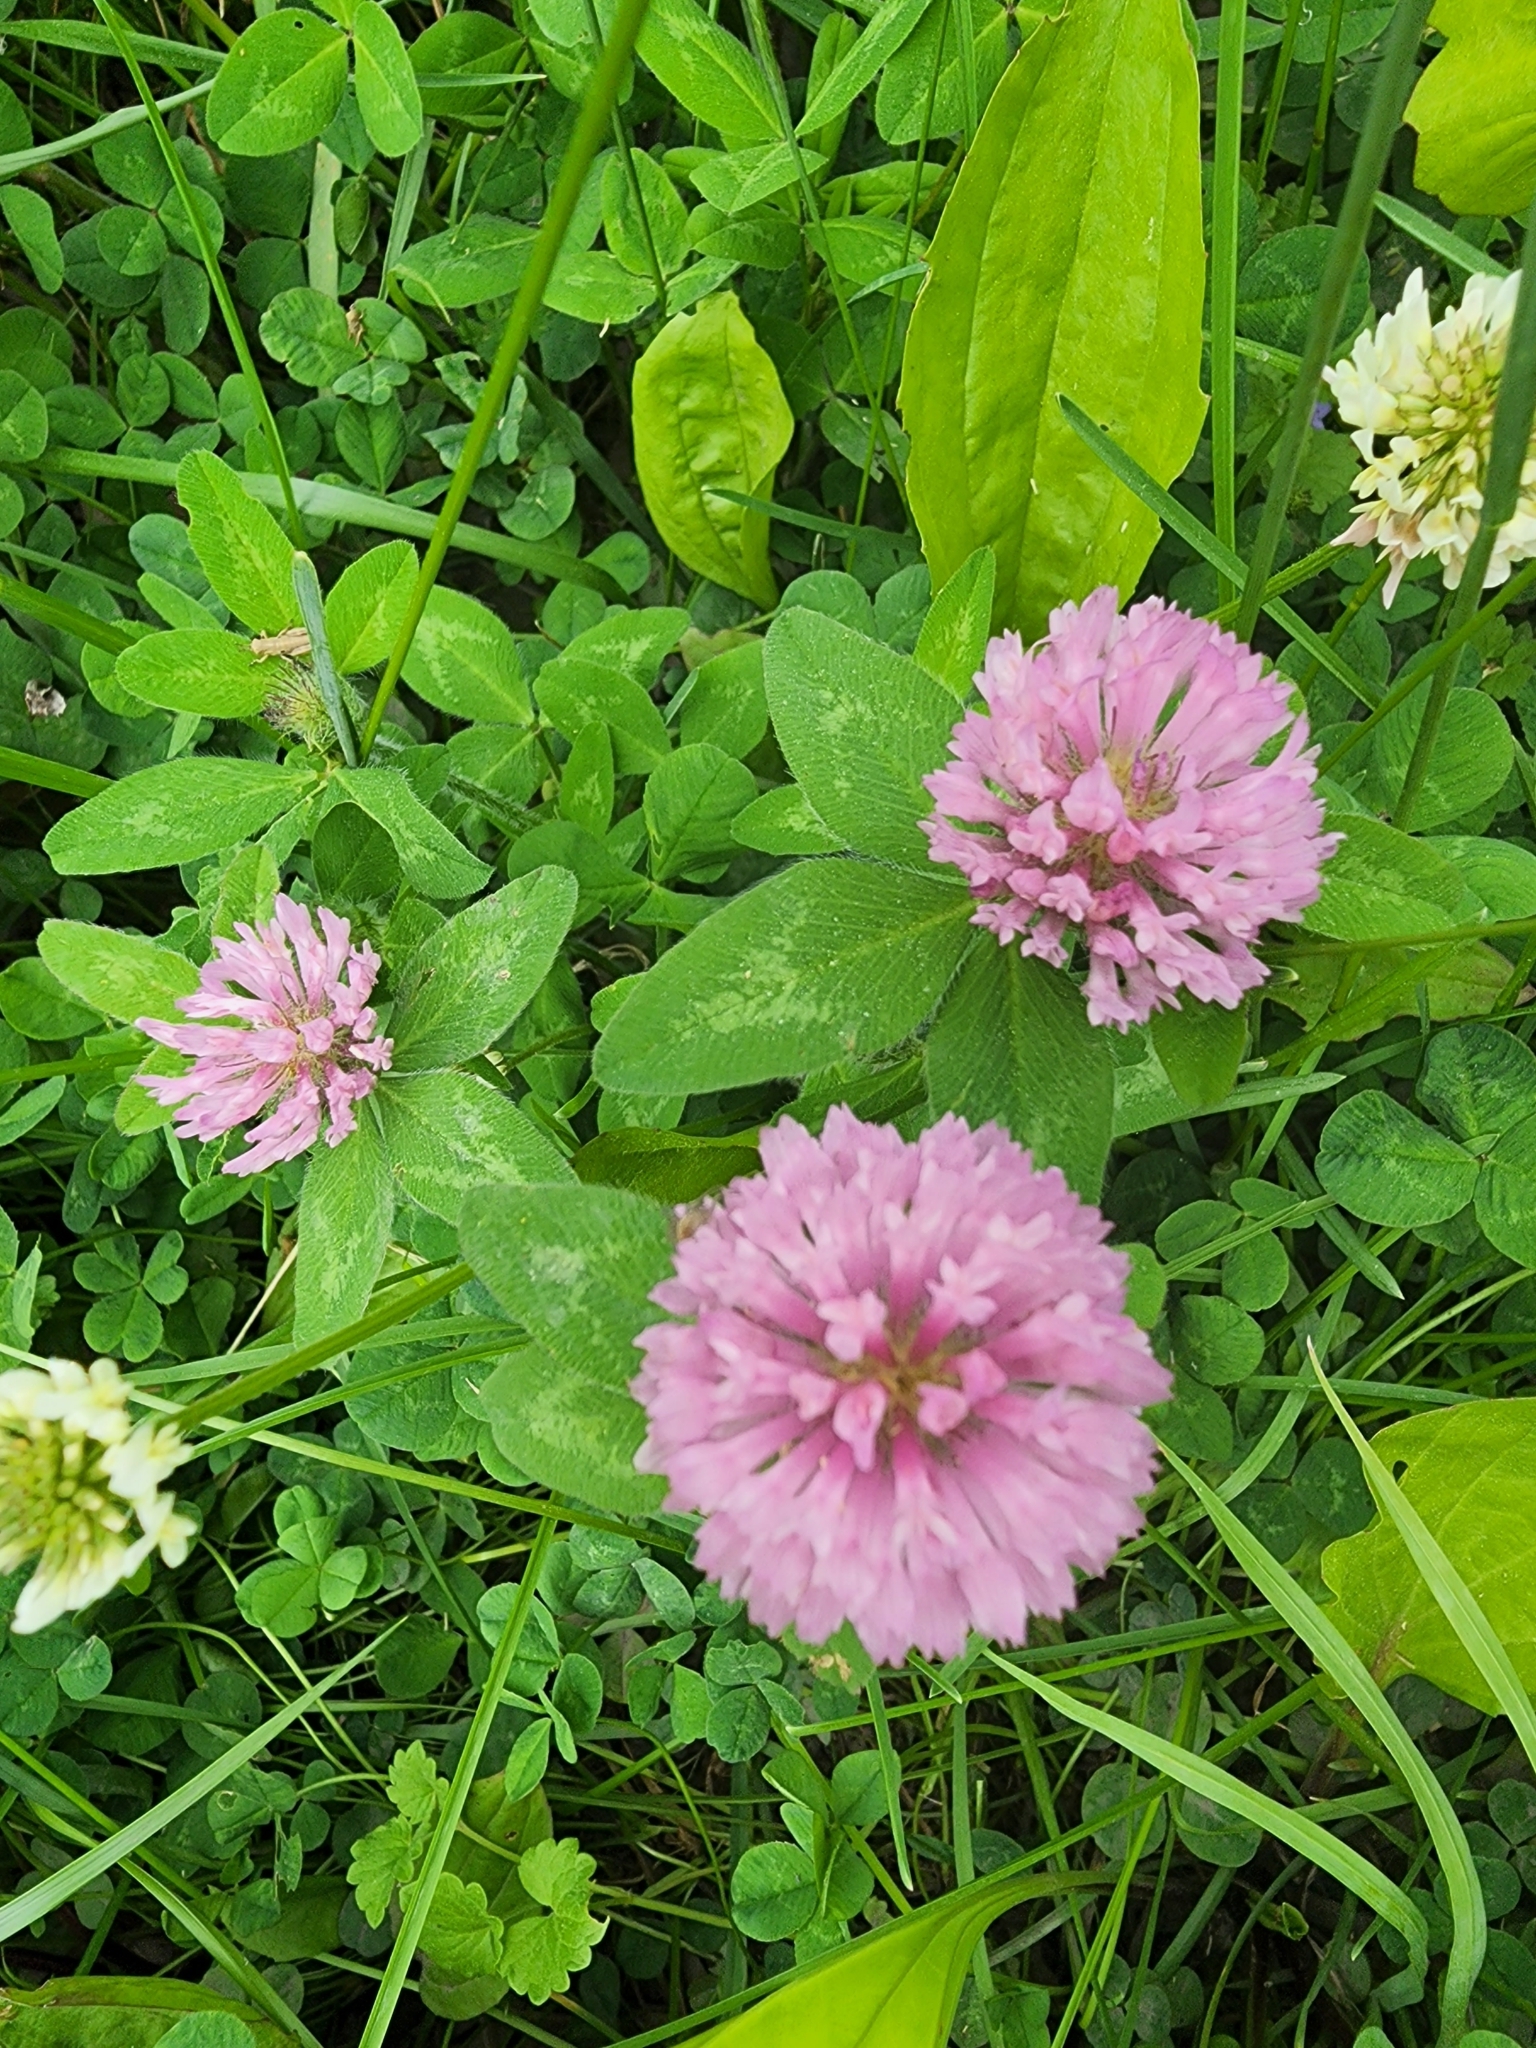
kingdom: Plantae
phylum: Tracheophyta
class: Magnoliopsida
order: Fabales
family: Fabaceae
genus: Trifolium
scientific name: Trifolium pratense
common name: Red clover
